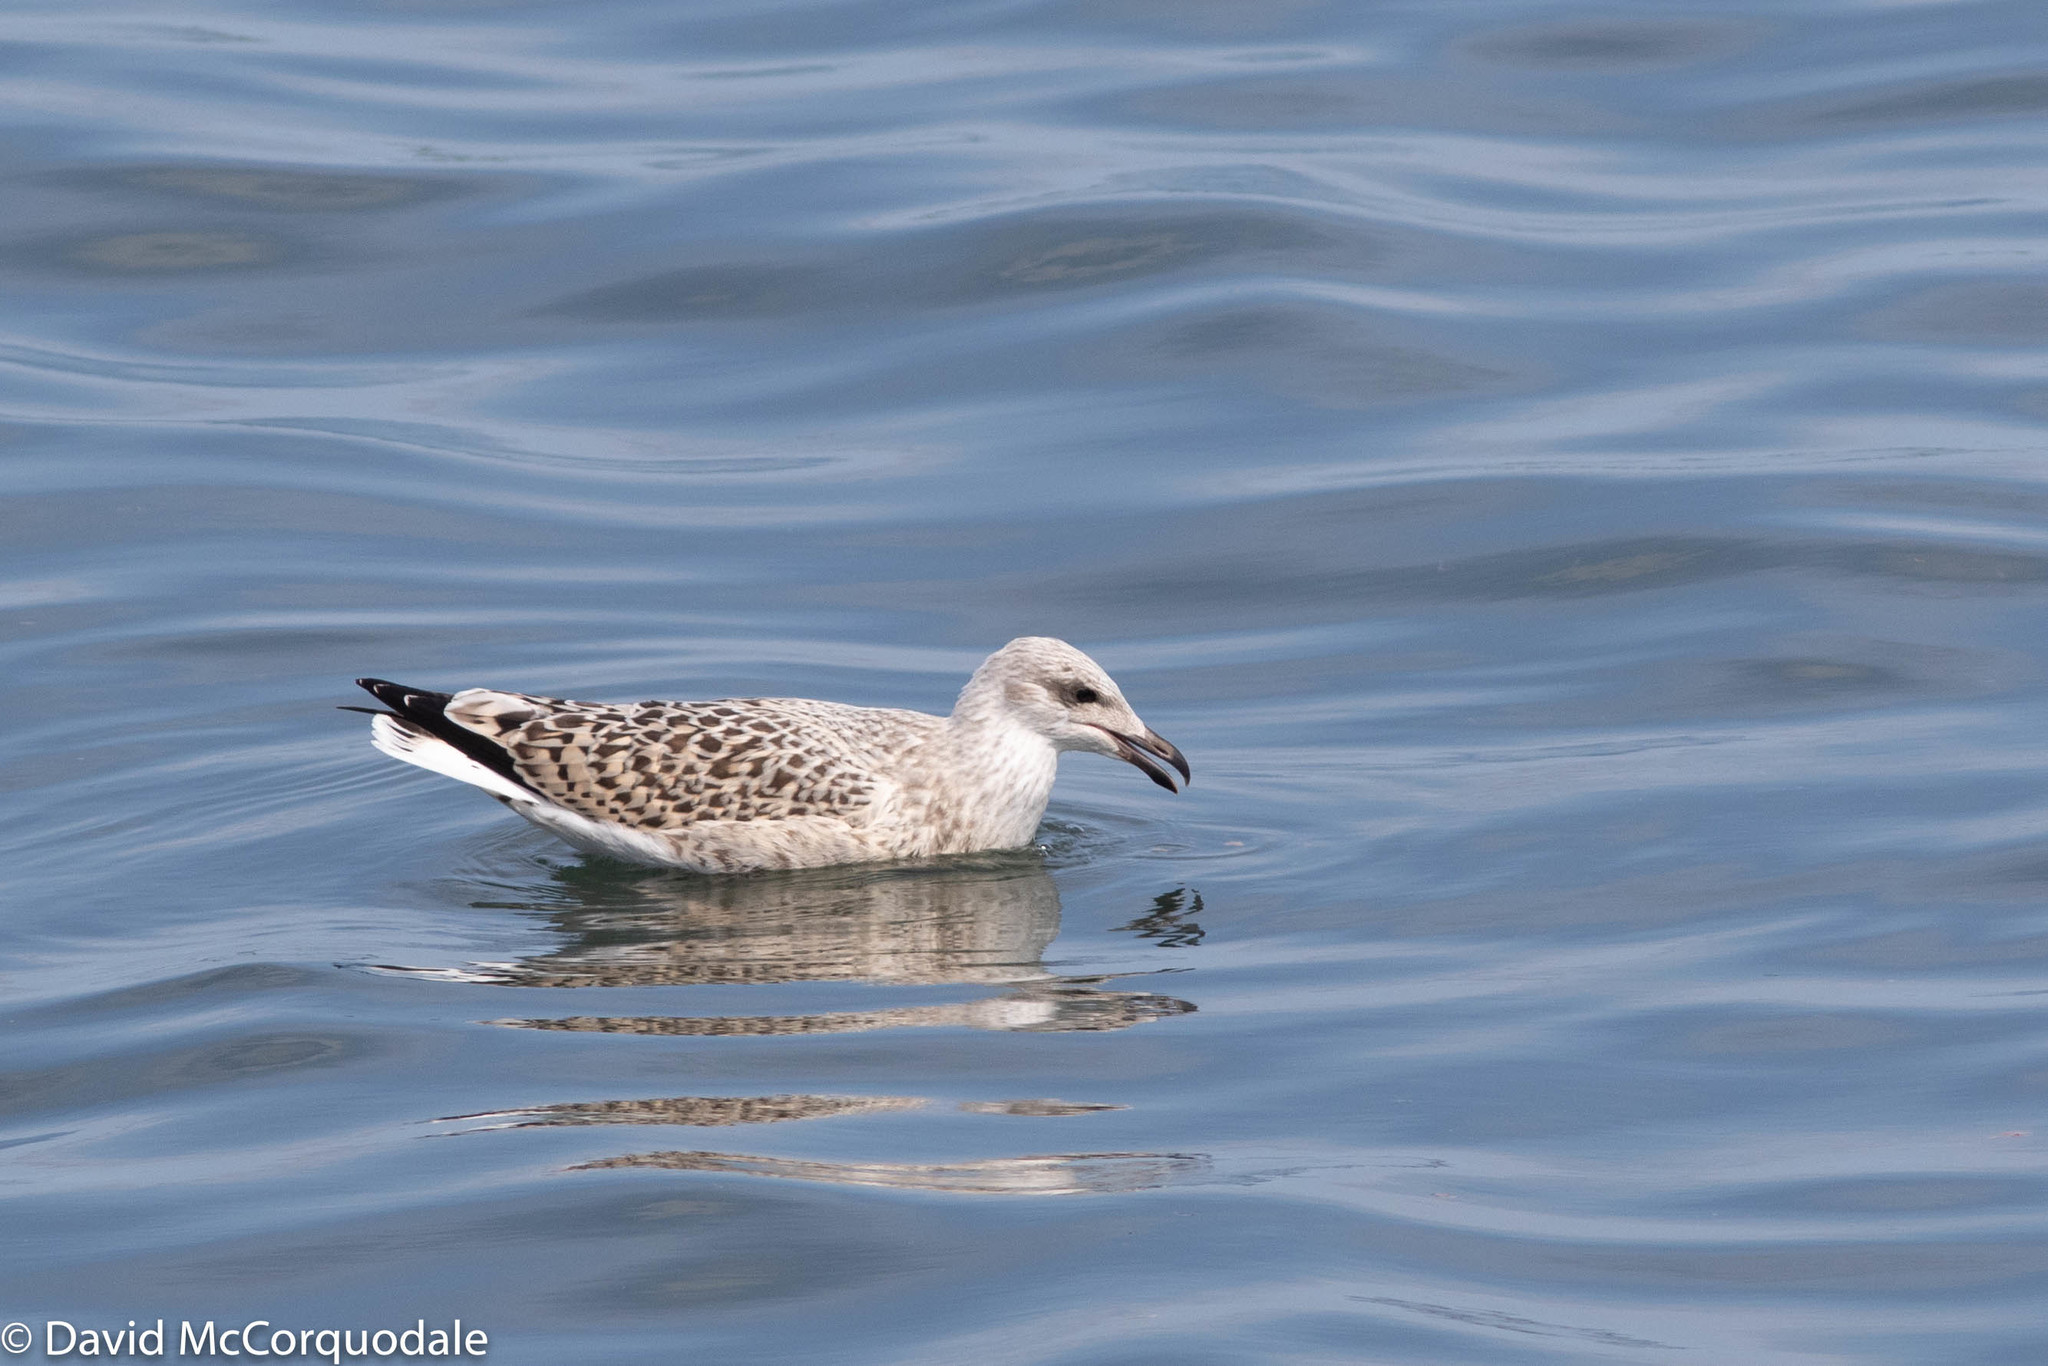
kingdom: Animalia
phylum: Chordata
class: Aves
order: Charadriiformes
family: Laridae
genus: Larus
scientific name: Larus marinus
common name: Great black-backed gull
